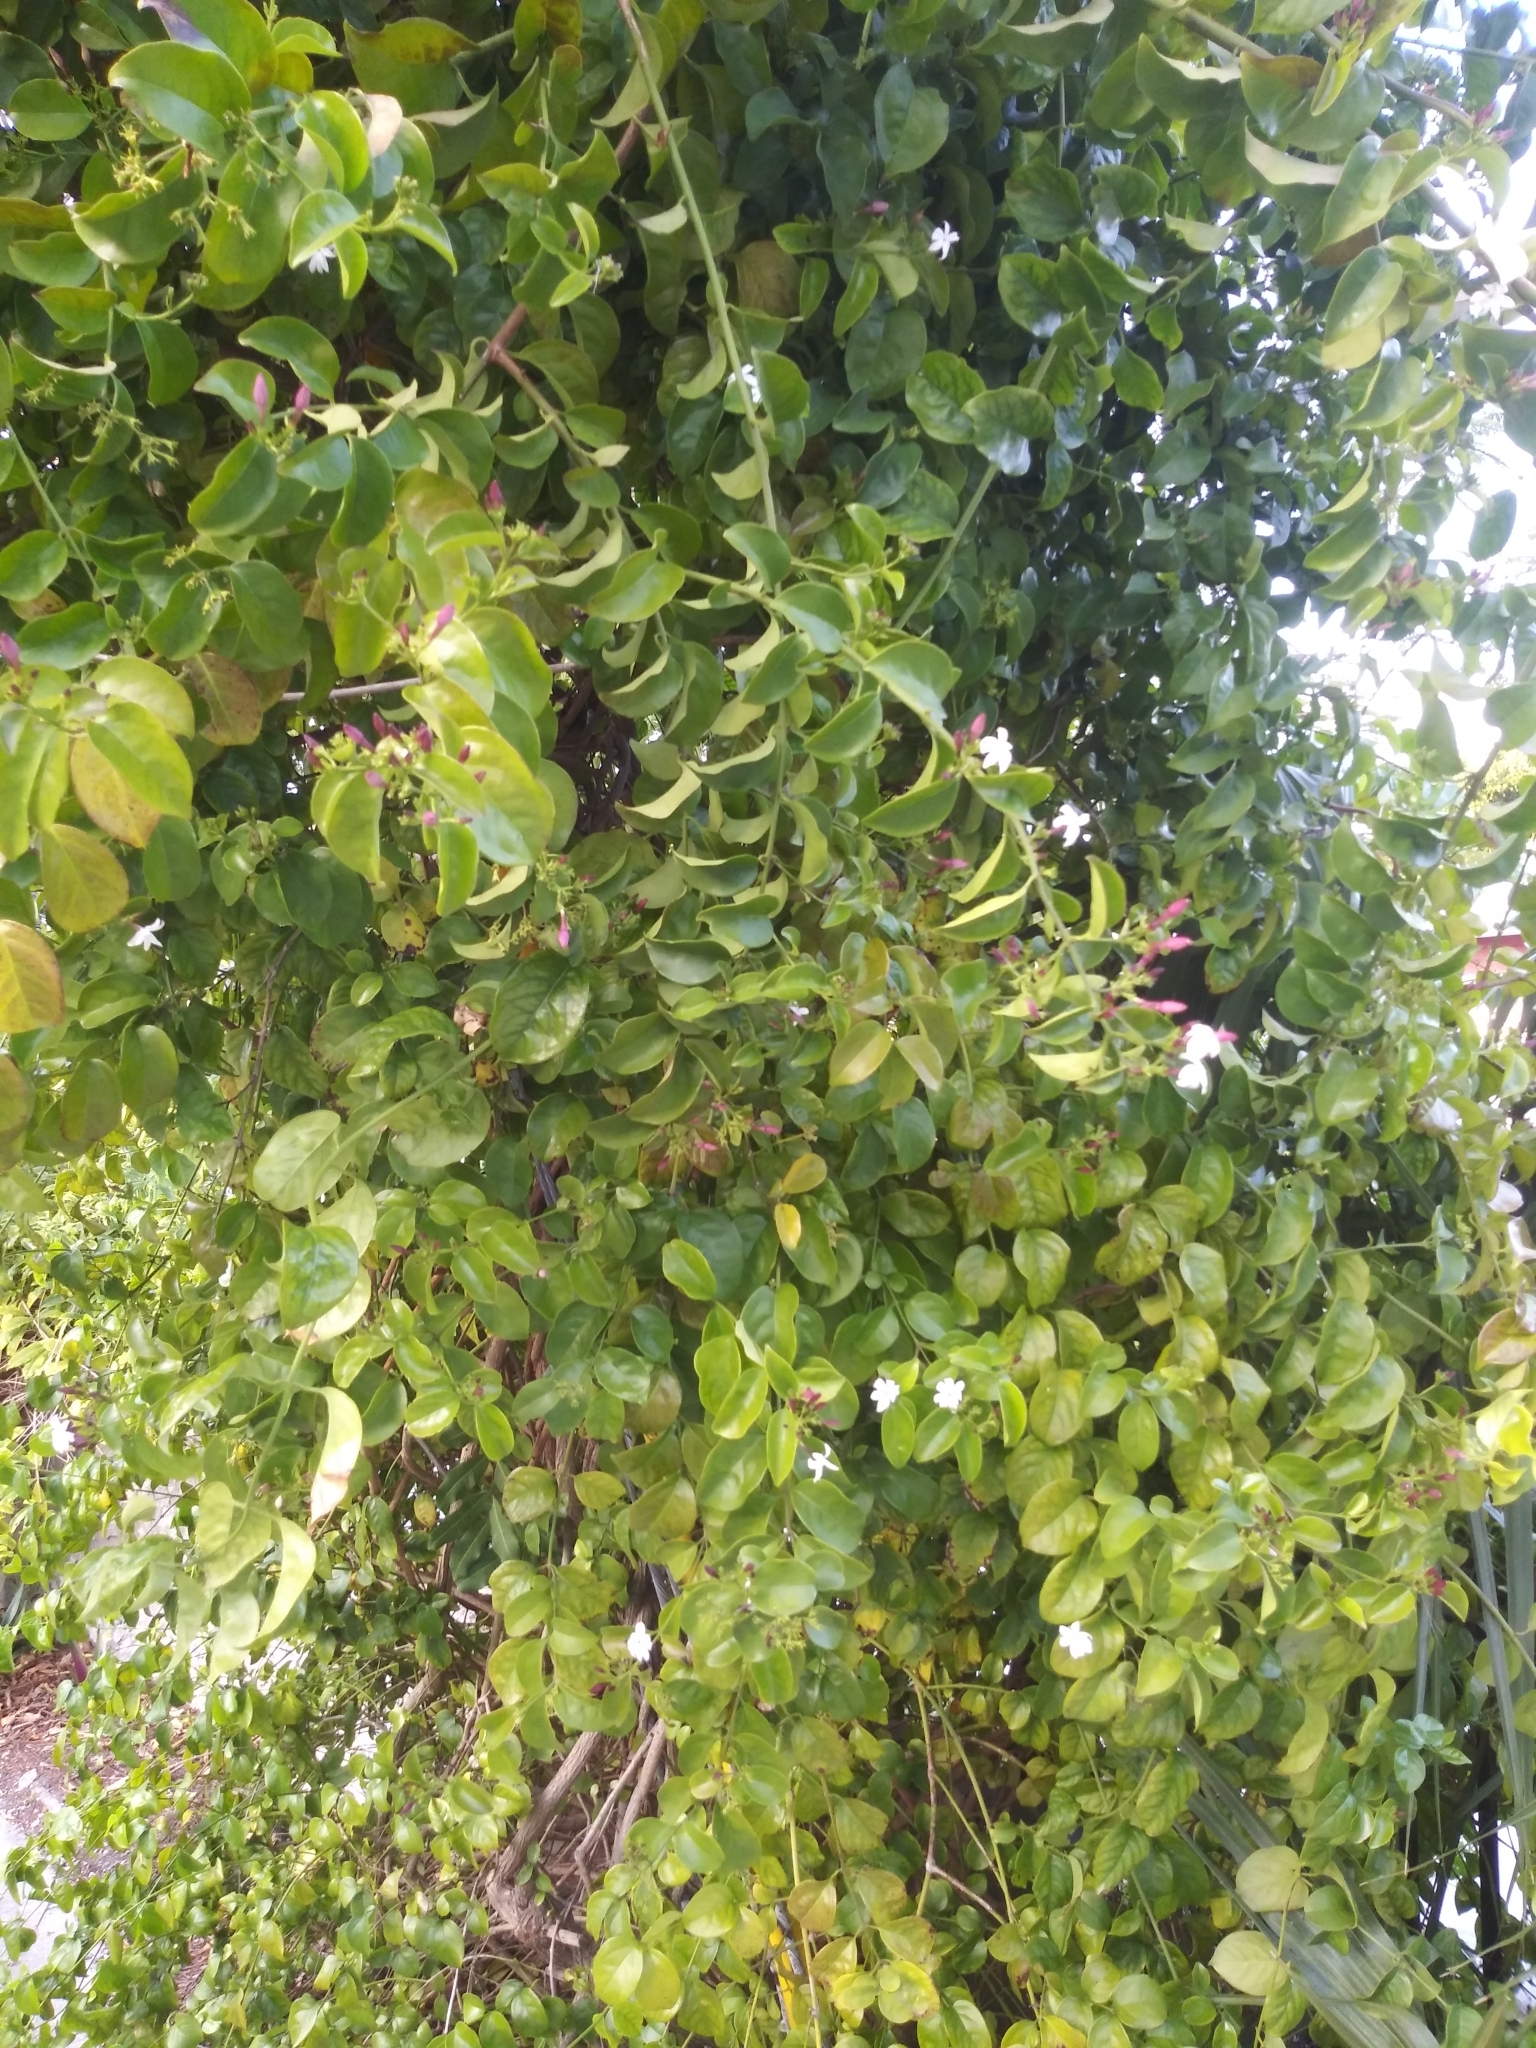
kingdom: Plantae
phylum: Tracheophyta
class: Magnoliopsida
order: Lamiales
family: Oleaceae
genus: Jasminum
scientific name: Jasminum dichotomum
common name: Gold coast jasmine
